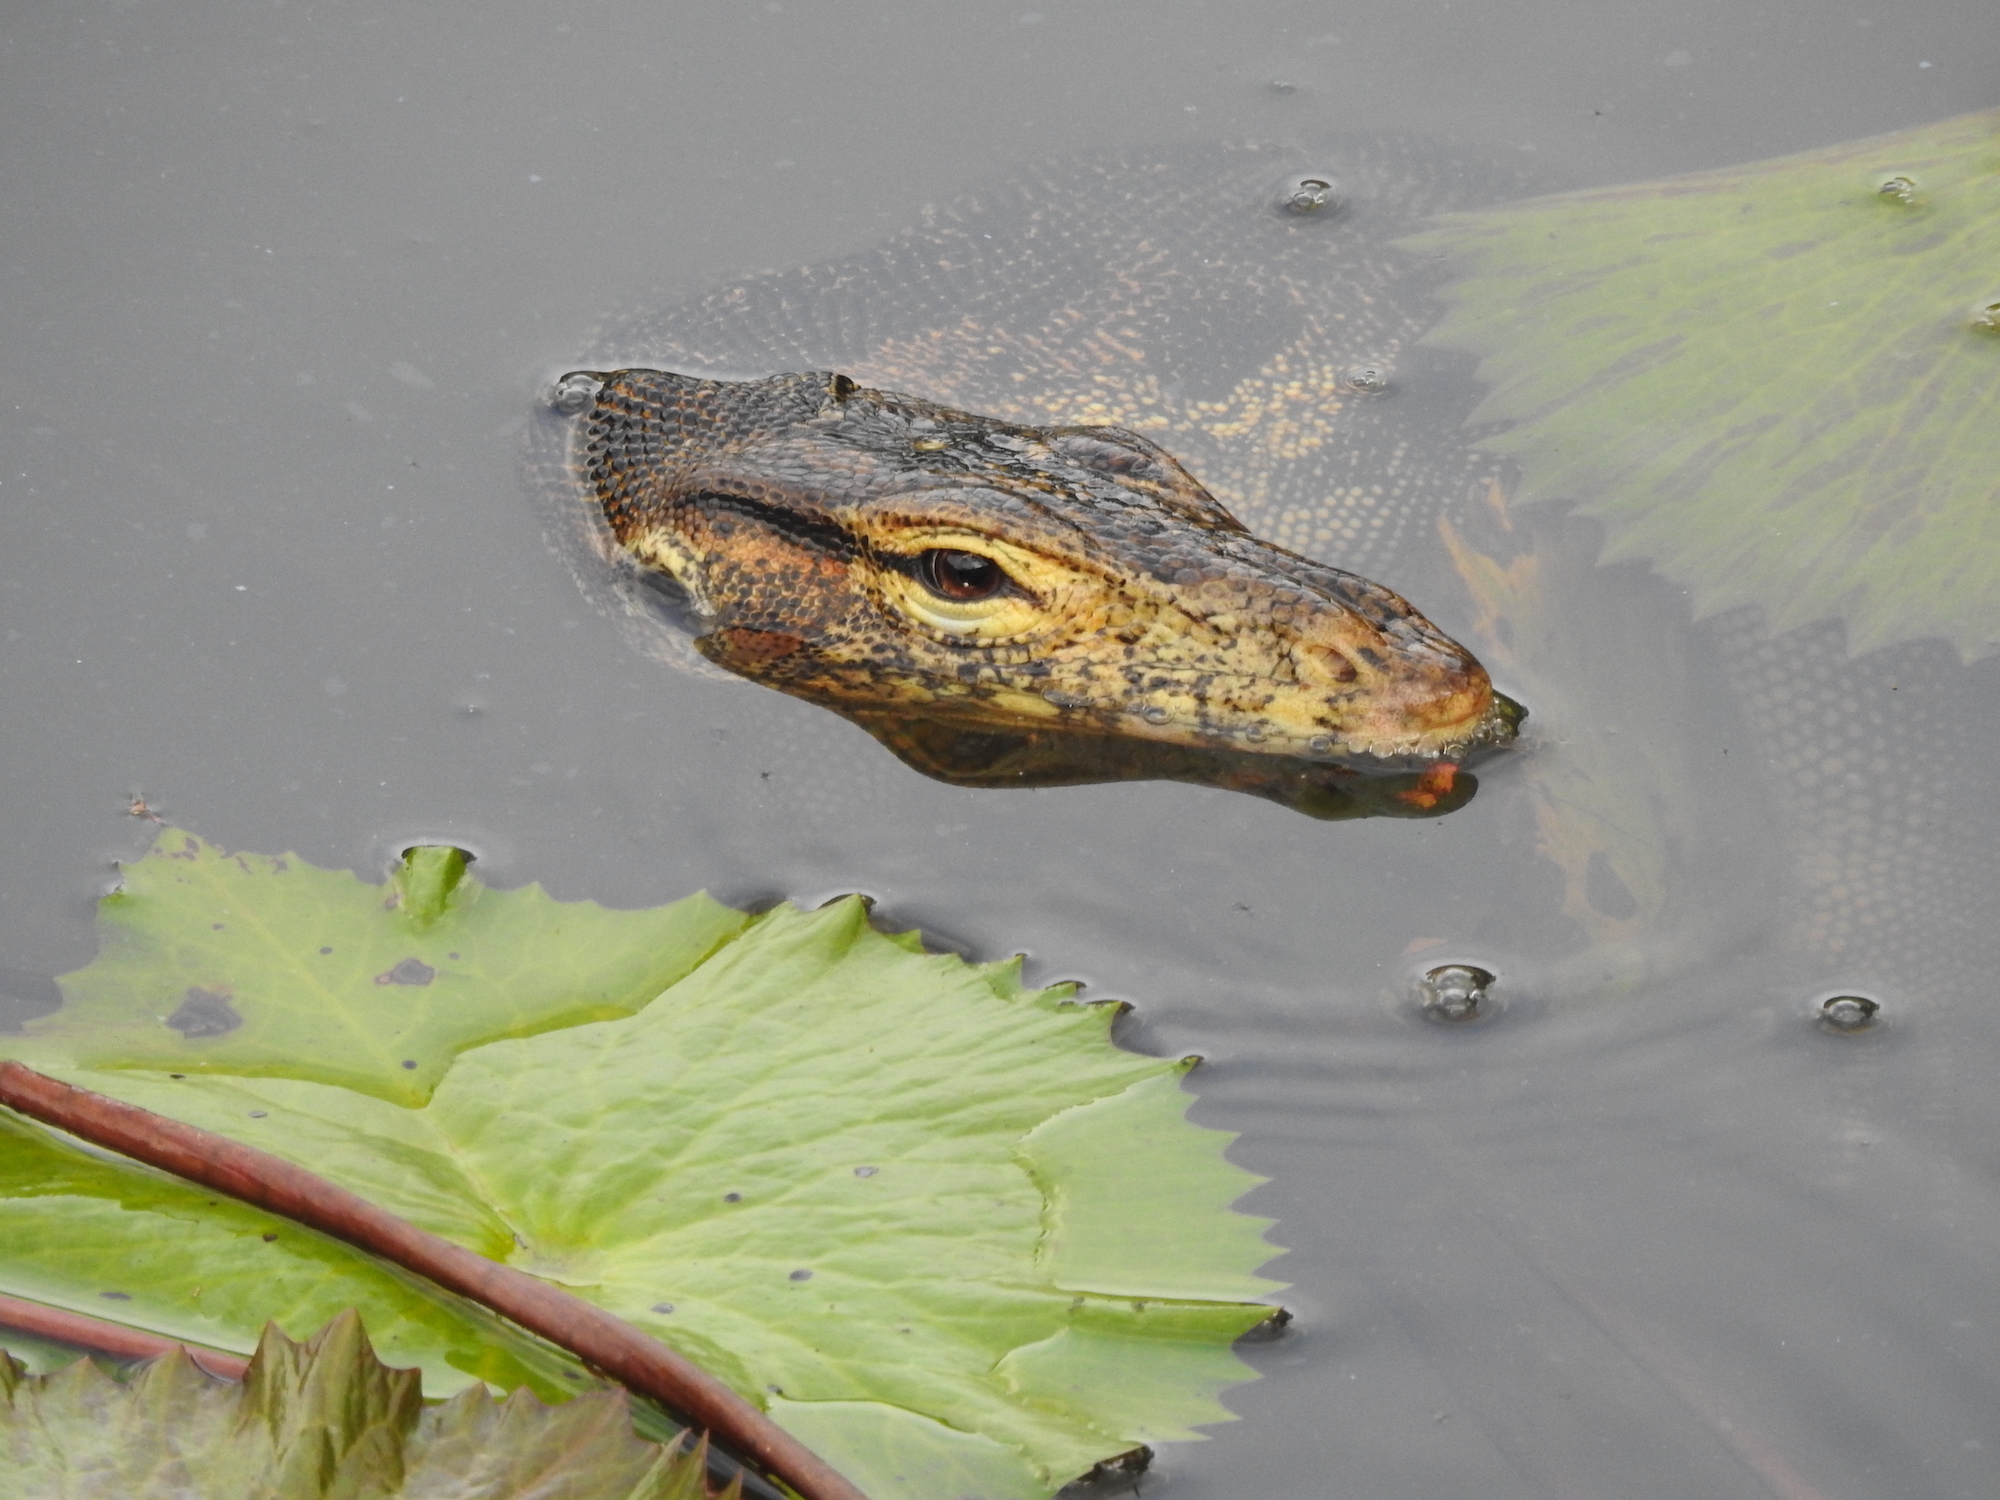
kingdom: Animalia
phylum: Chordata
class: Squamata
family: Varanidae
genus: Varanus
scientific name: Varanus salvator
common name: Common water monitor
